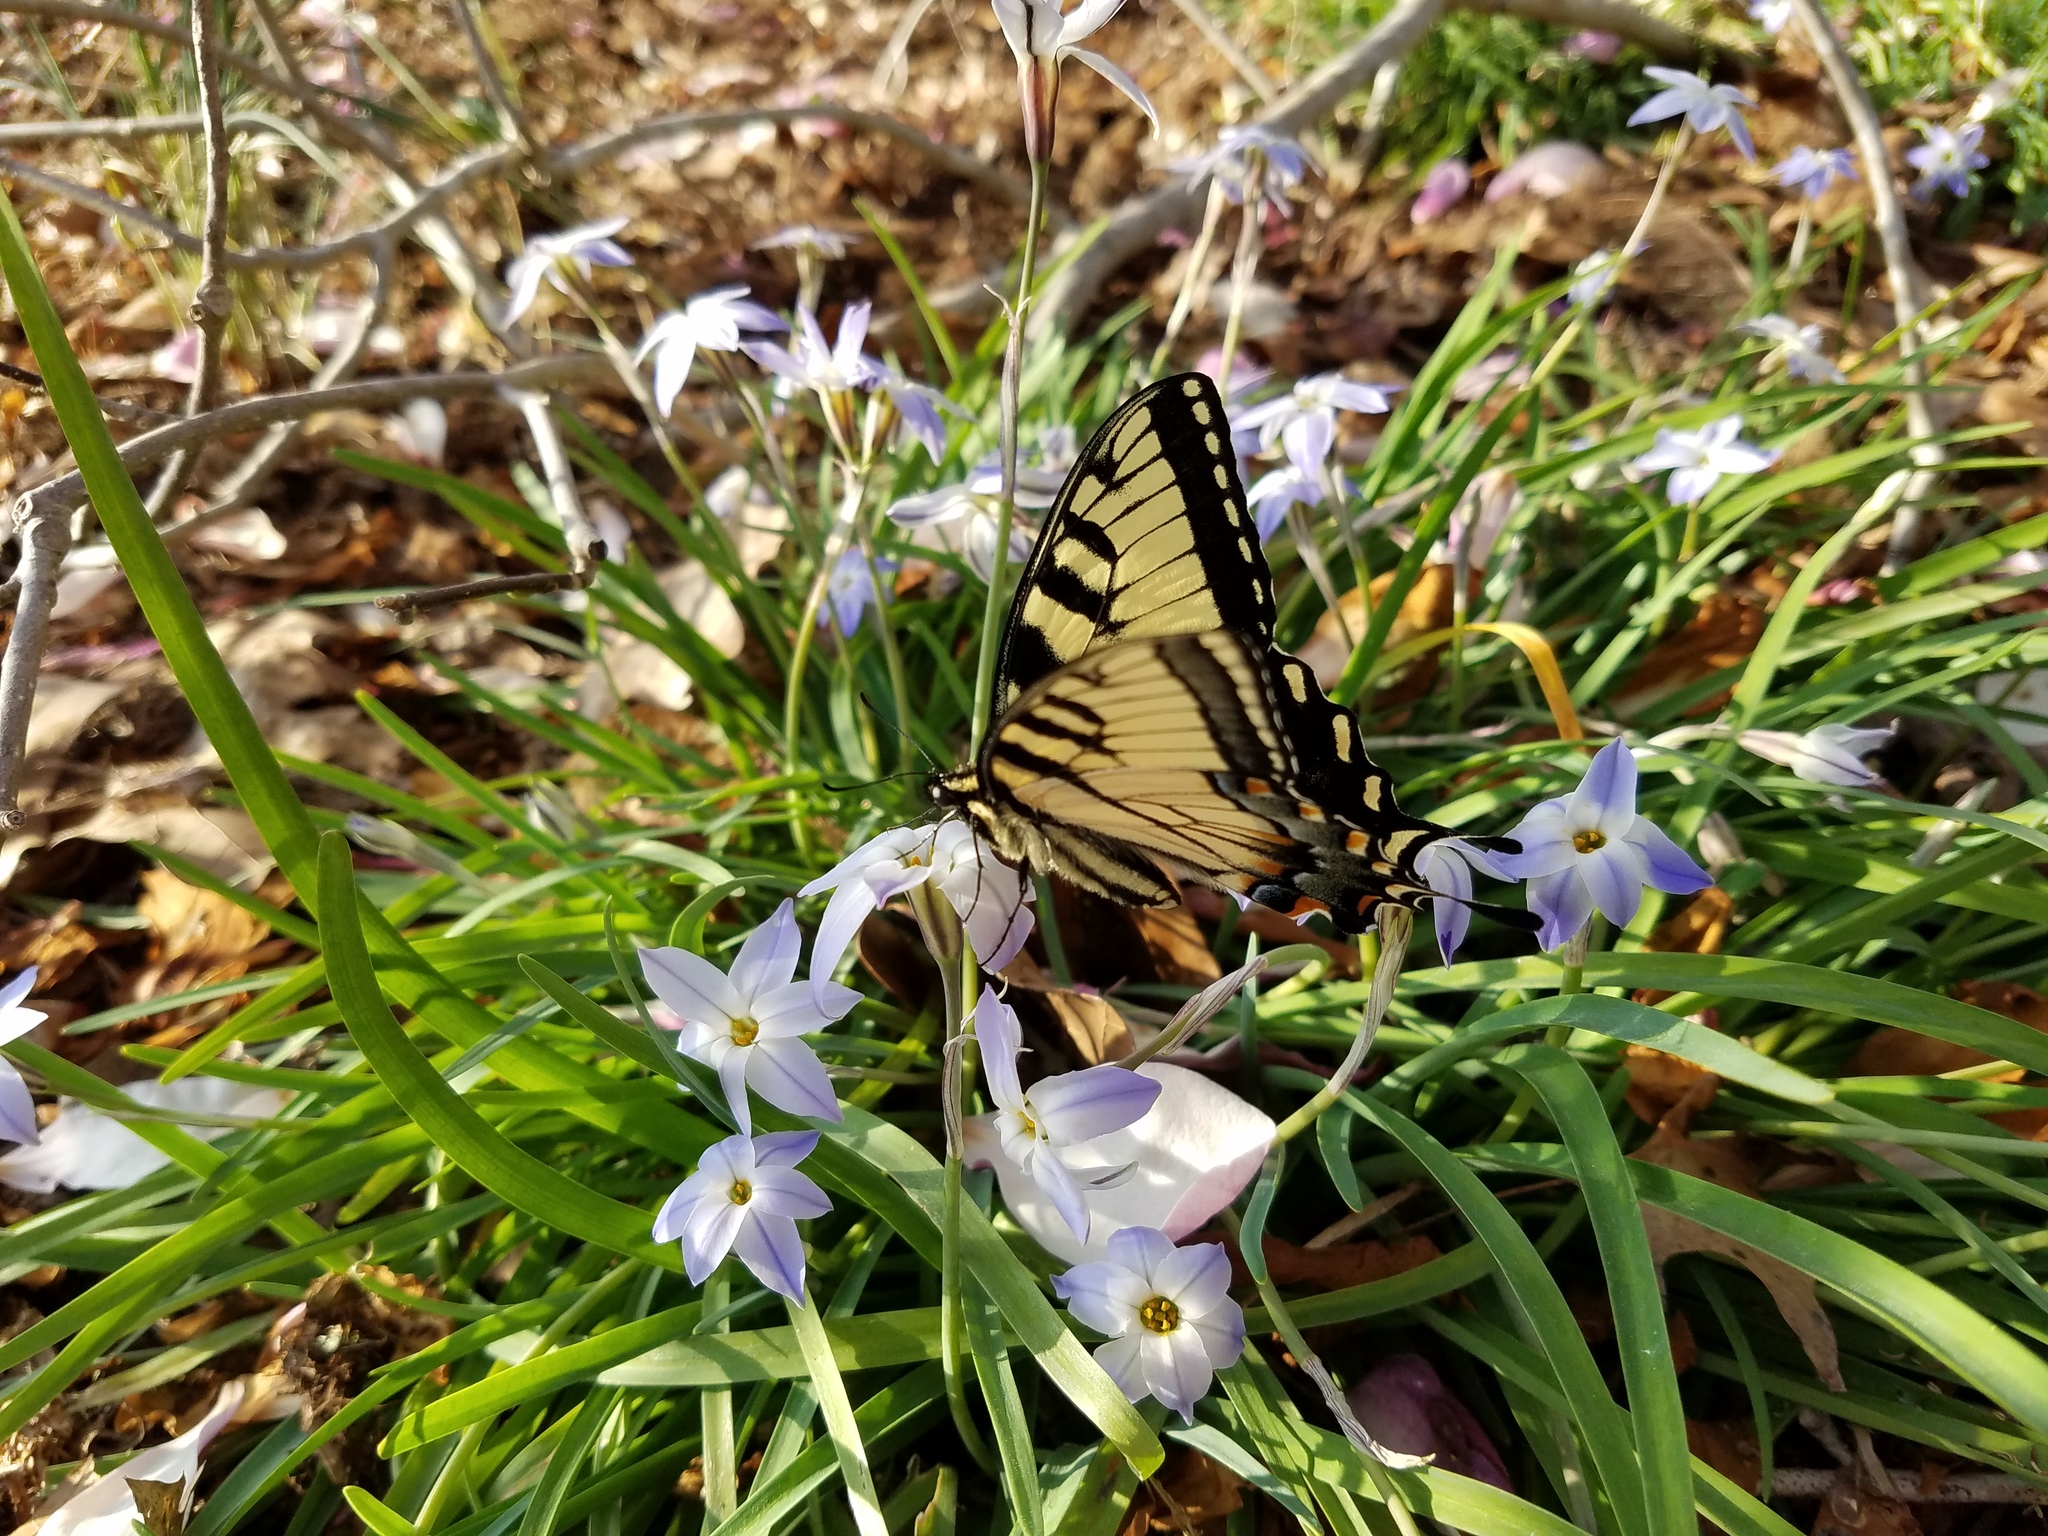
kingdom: Animalia
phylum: Arthropoda
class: Insecta
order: Lepidoptera
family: Papilionidae
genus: Papilio
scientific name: Papilio glaucus
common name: Tiger swallowtail
